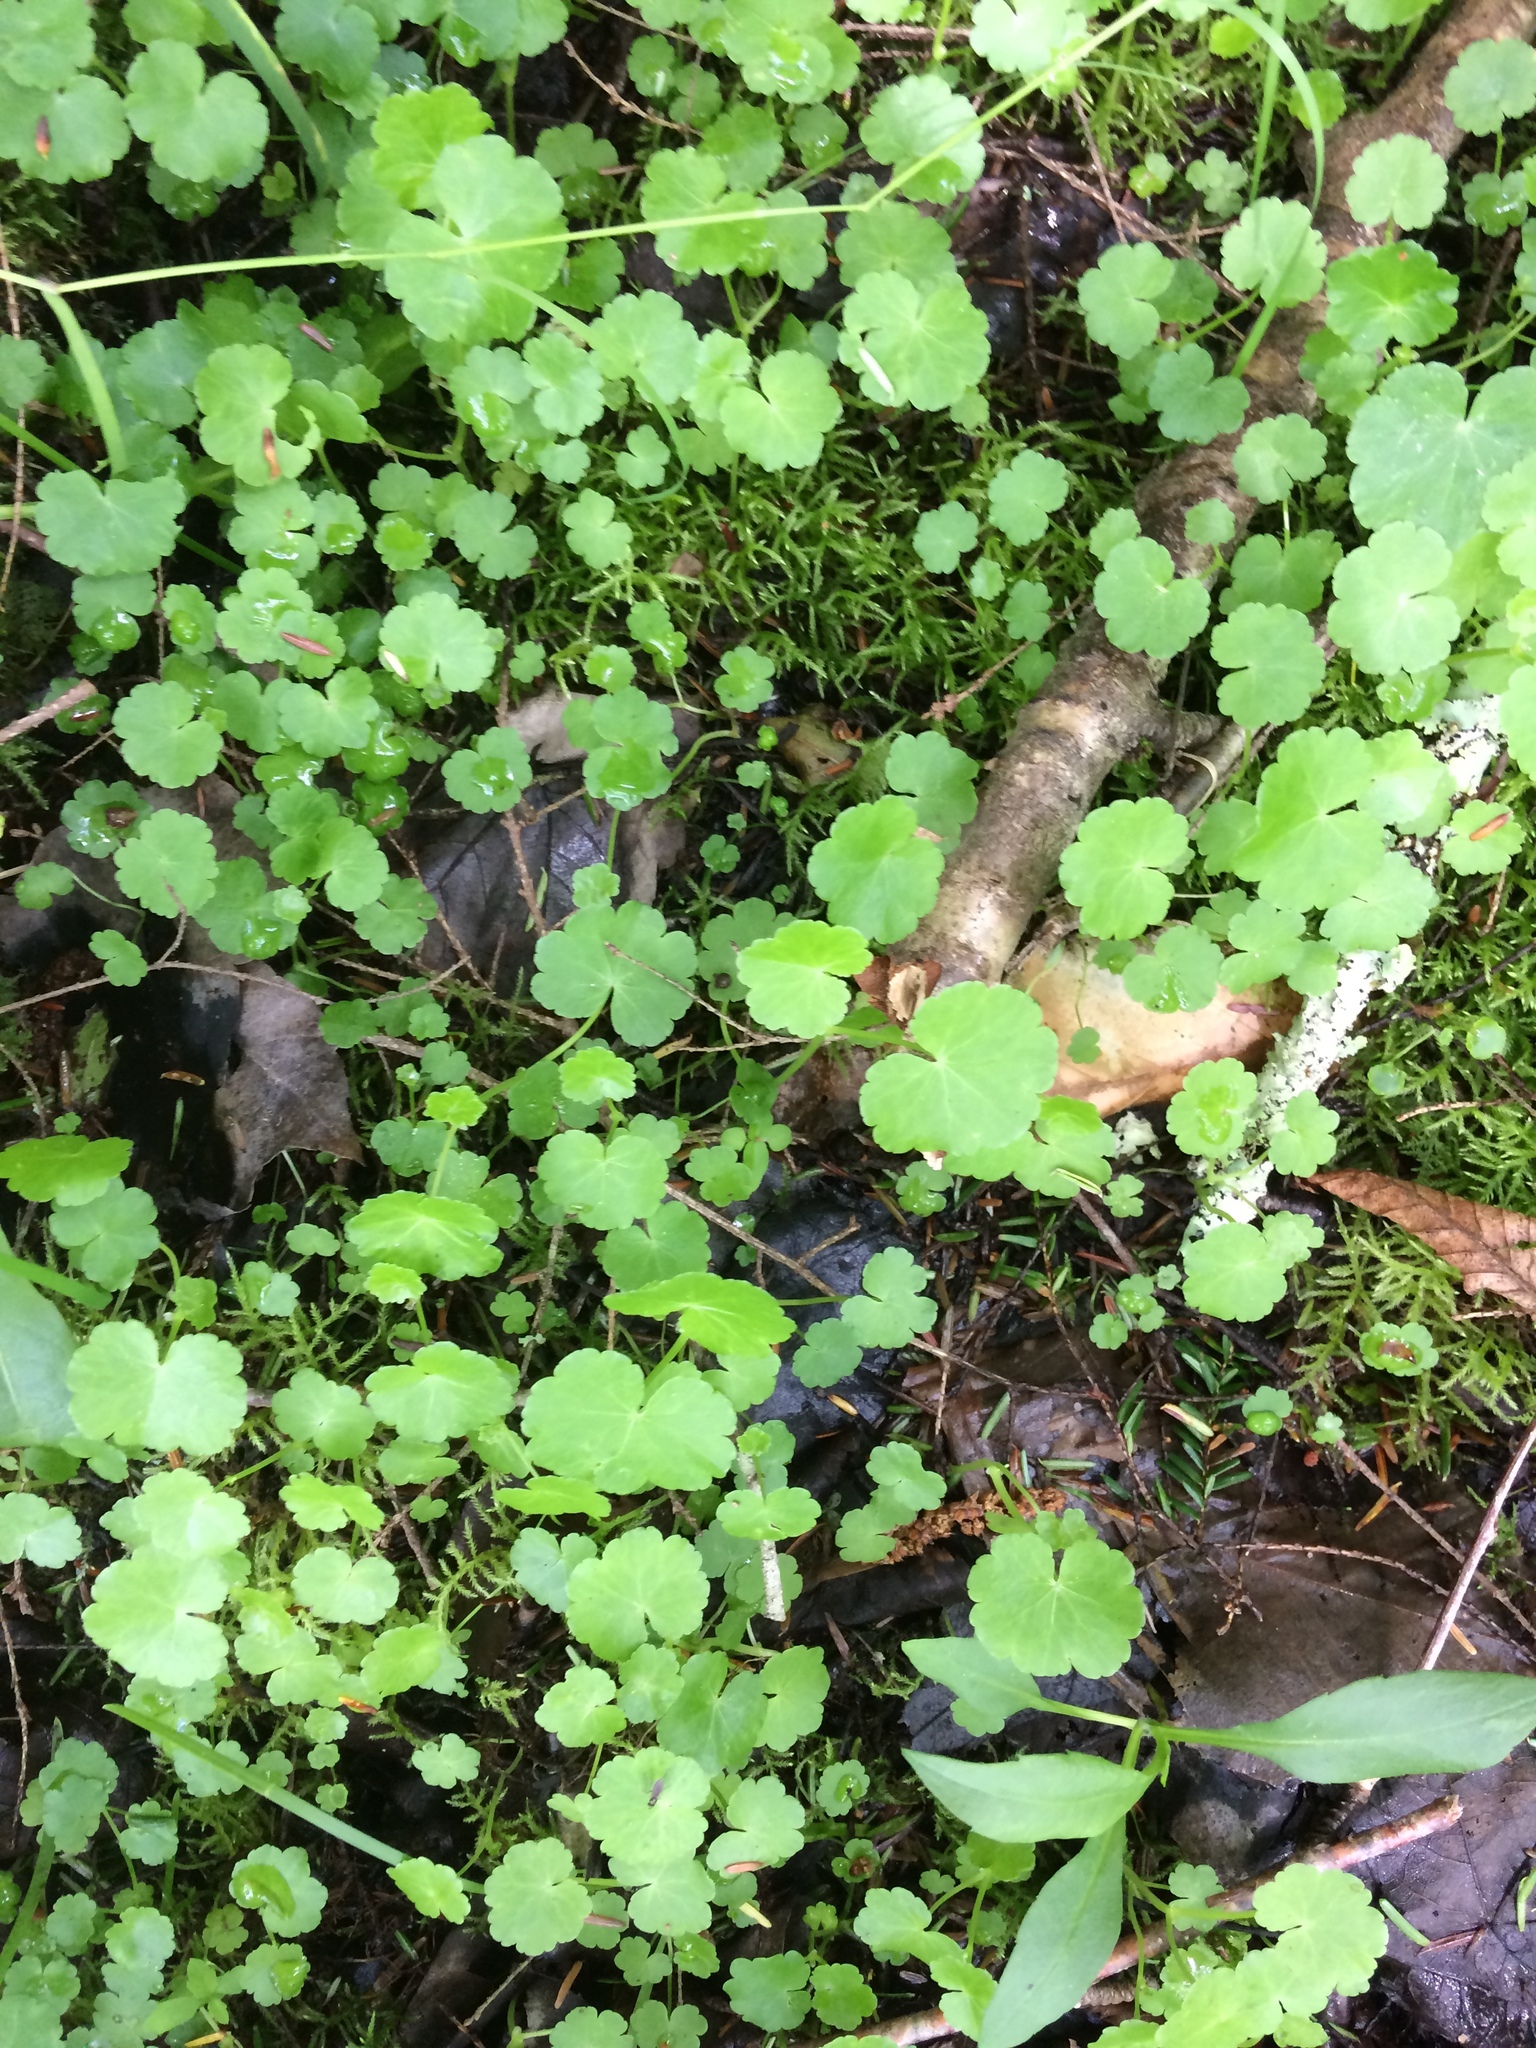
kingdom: Plantae
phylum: Tracheophyta
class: Magnoliopsida
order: Apiales
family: Araliaceae
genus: Hydrocotyle
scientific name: Hydrocotyle americana
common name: American water-pennywort
